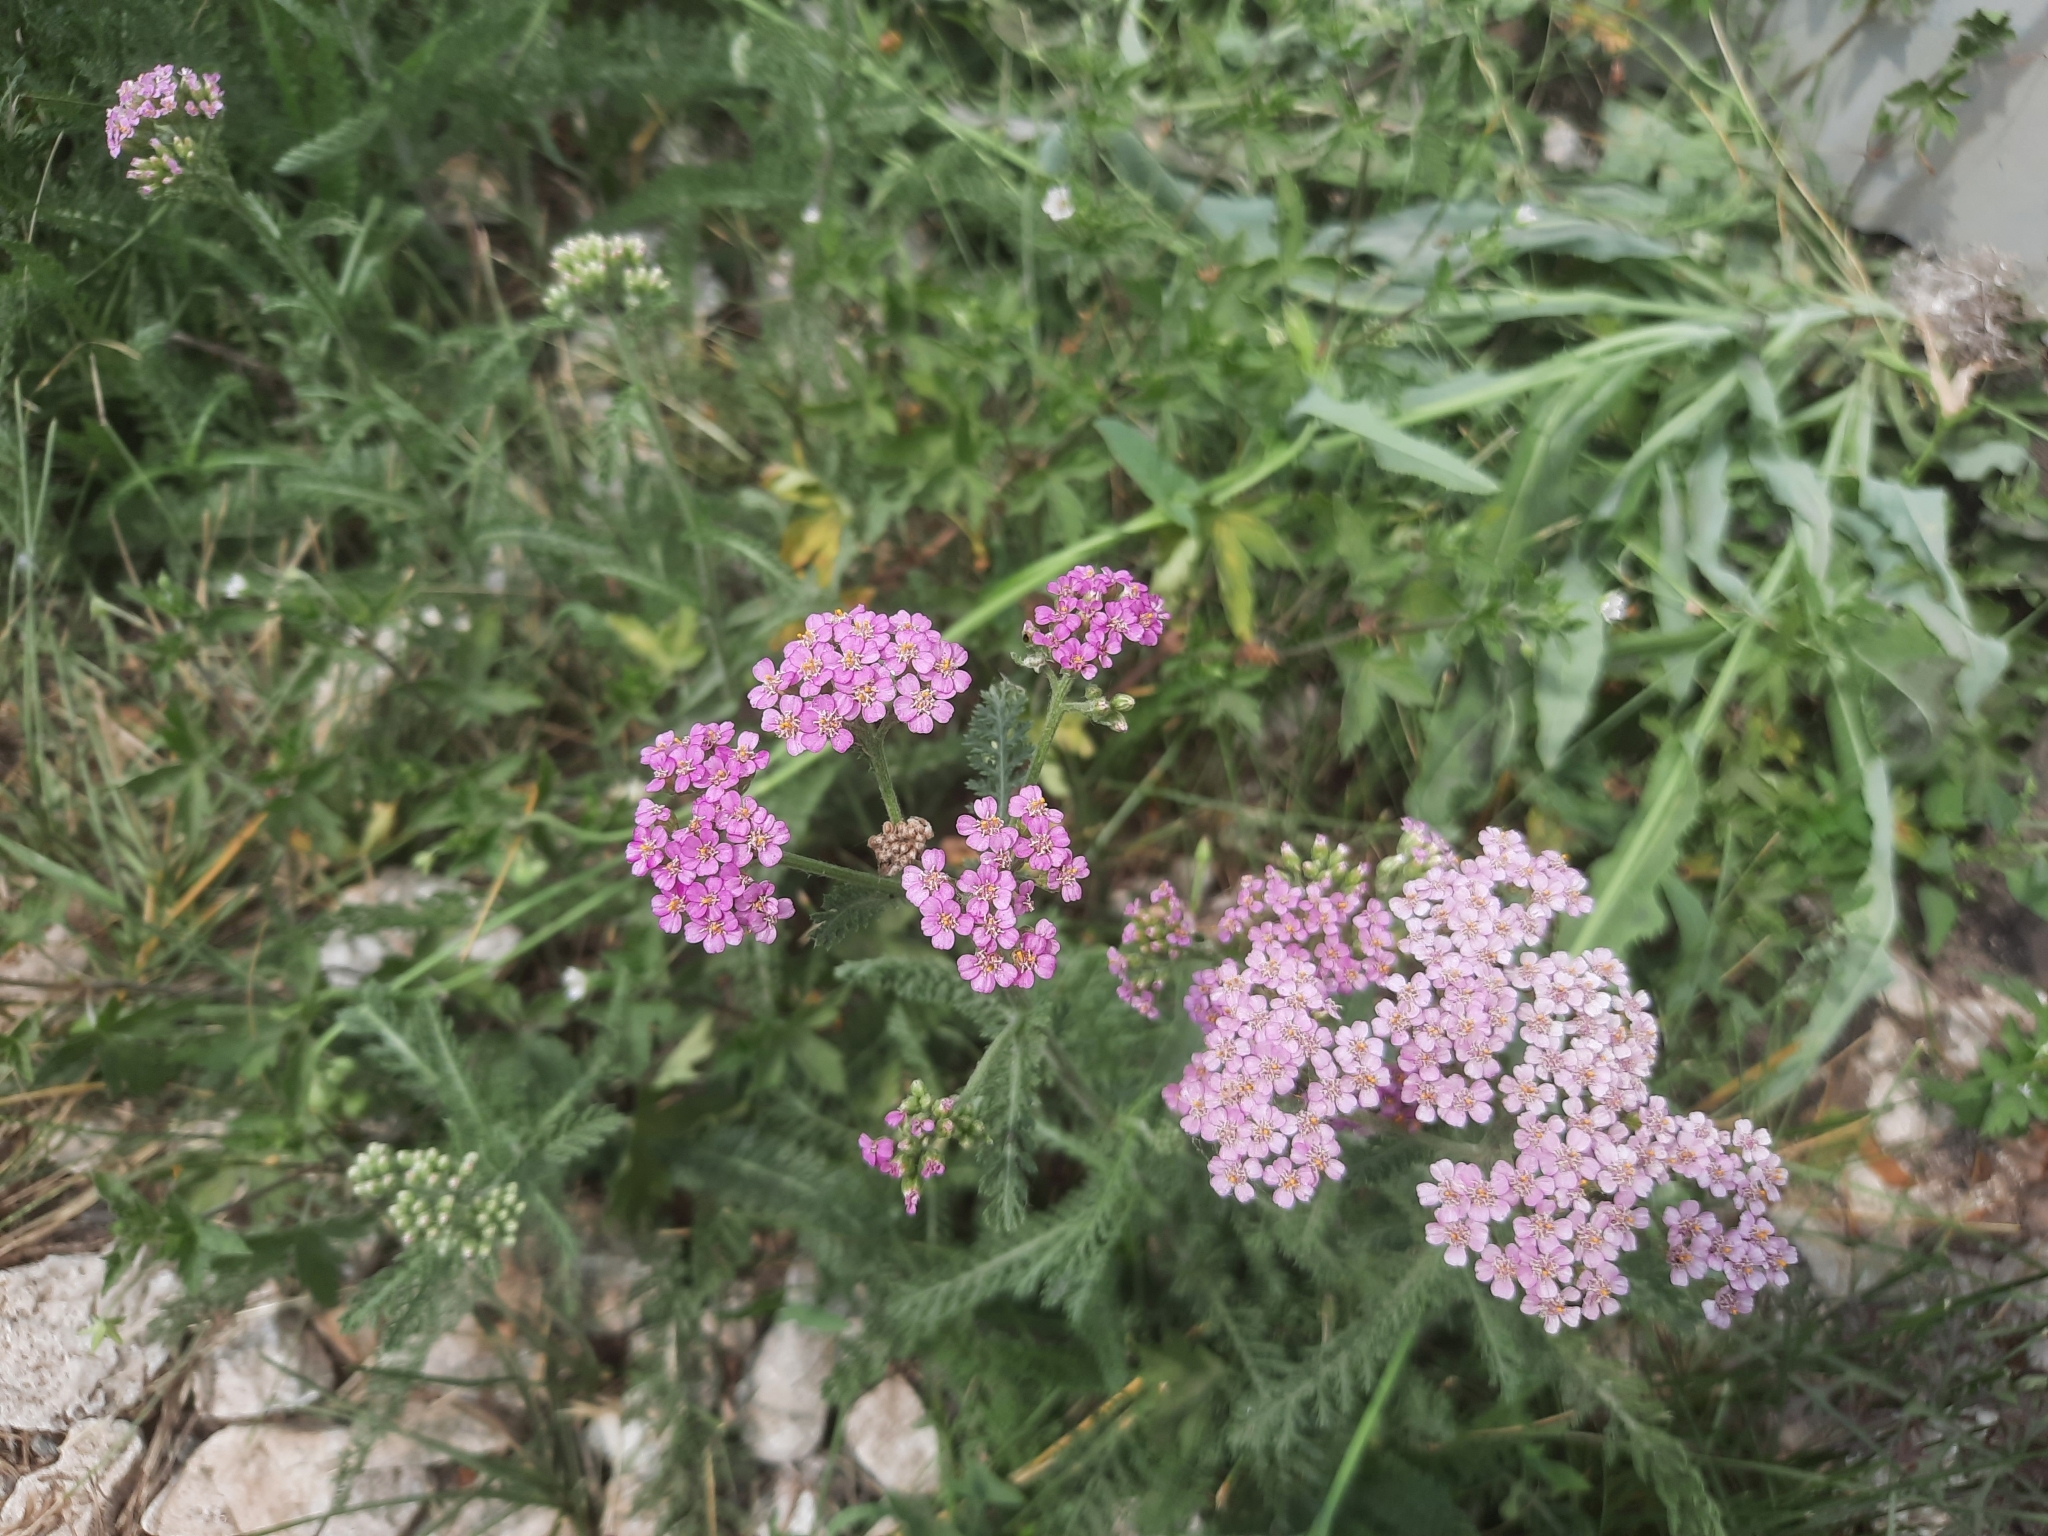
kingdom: Plantae
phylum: Tracheophyta
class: Magnoliopsida
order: Asterales
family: Asteraceae
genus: Achillea
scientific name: Achillea millefolium
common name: Yarrow
